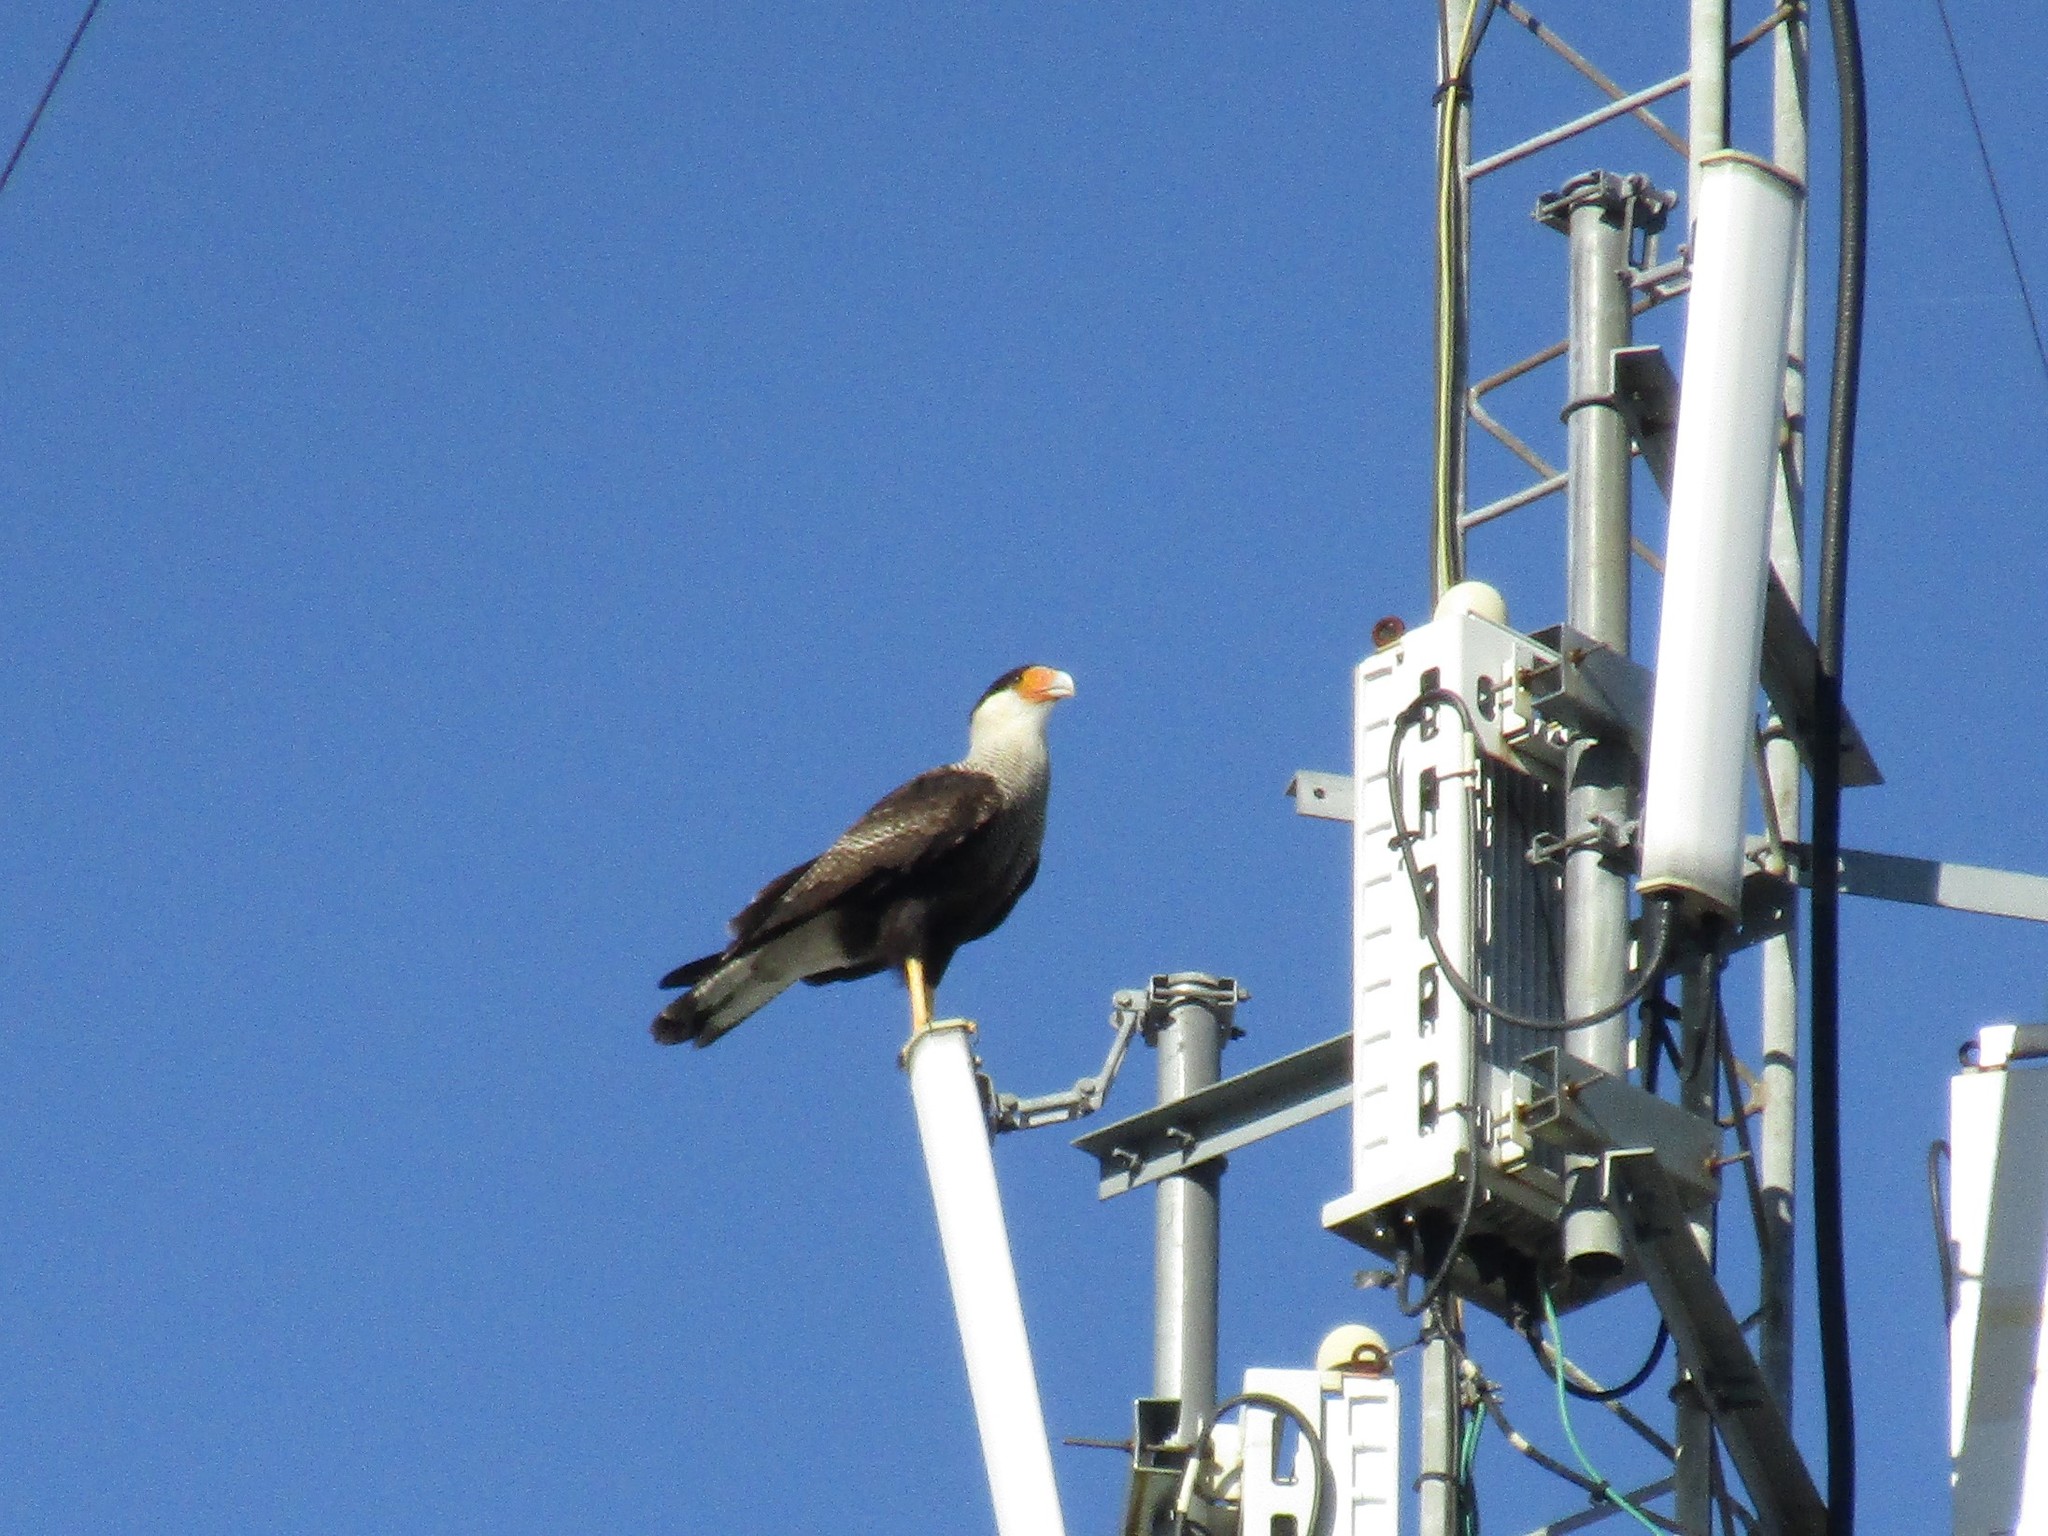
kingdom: Animalia
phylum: Chordata
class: Aves
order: Falconiformes
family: Falconidae
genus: Caracara
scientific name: Caracara plancus
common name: Southern caracara
